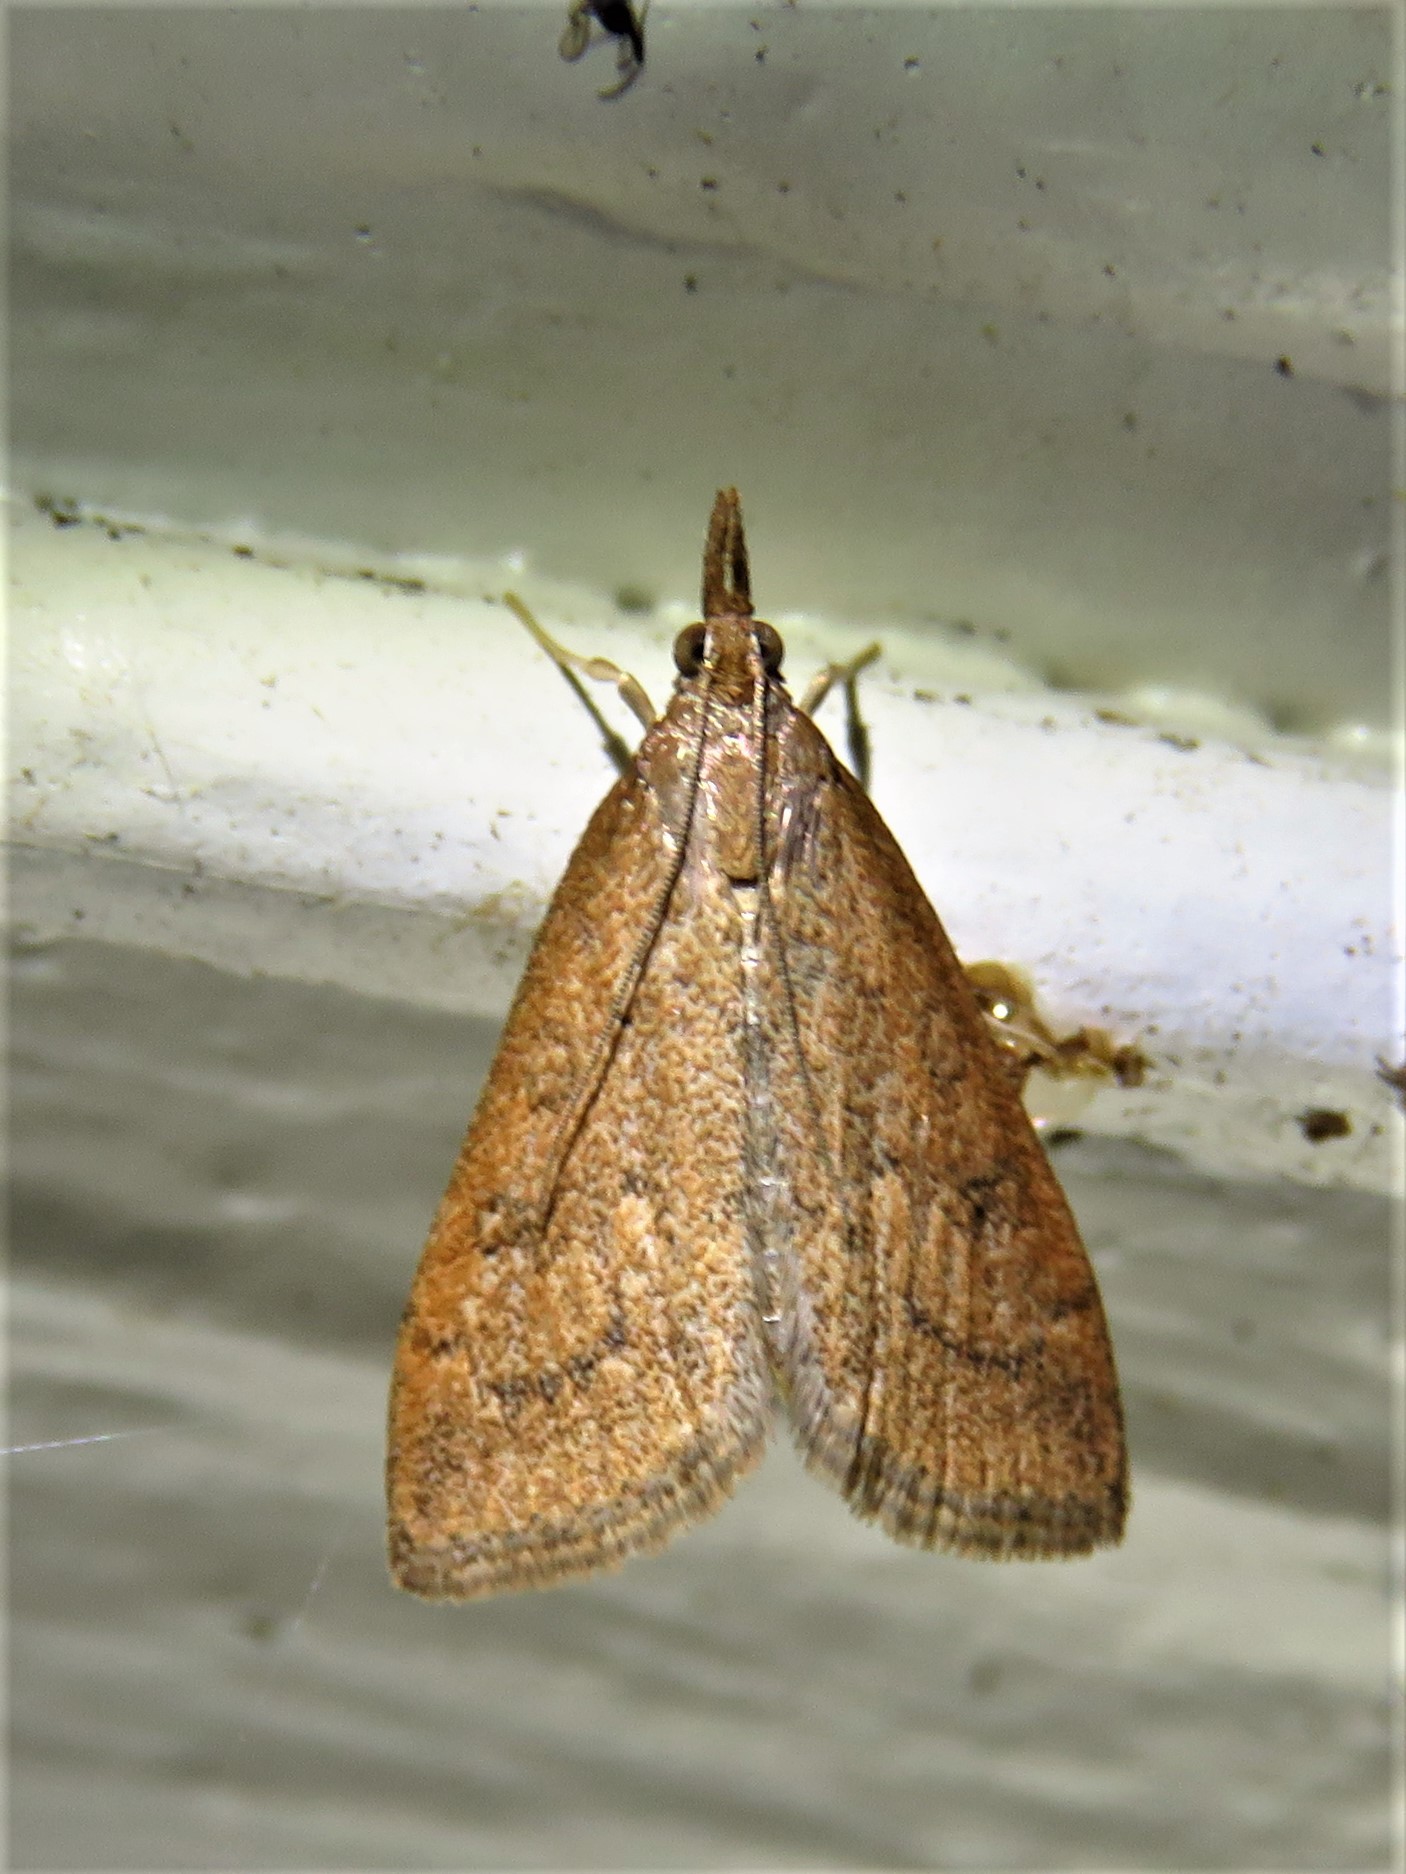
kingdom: Animalia
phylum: Arthropoda
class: Insecta
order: Lepidoptera
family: Crambidae
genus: Udea
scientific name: Udea rubigalis
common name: Celery leaftier moth
